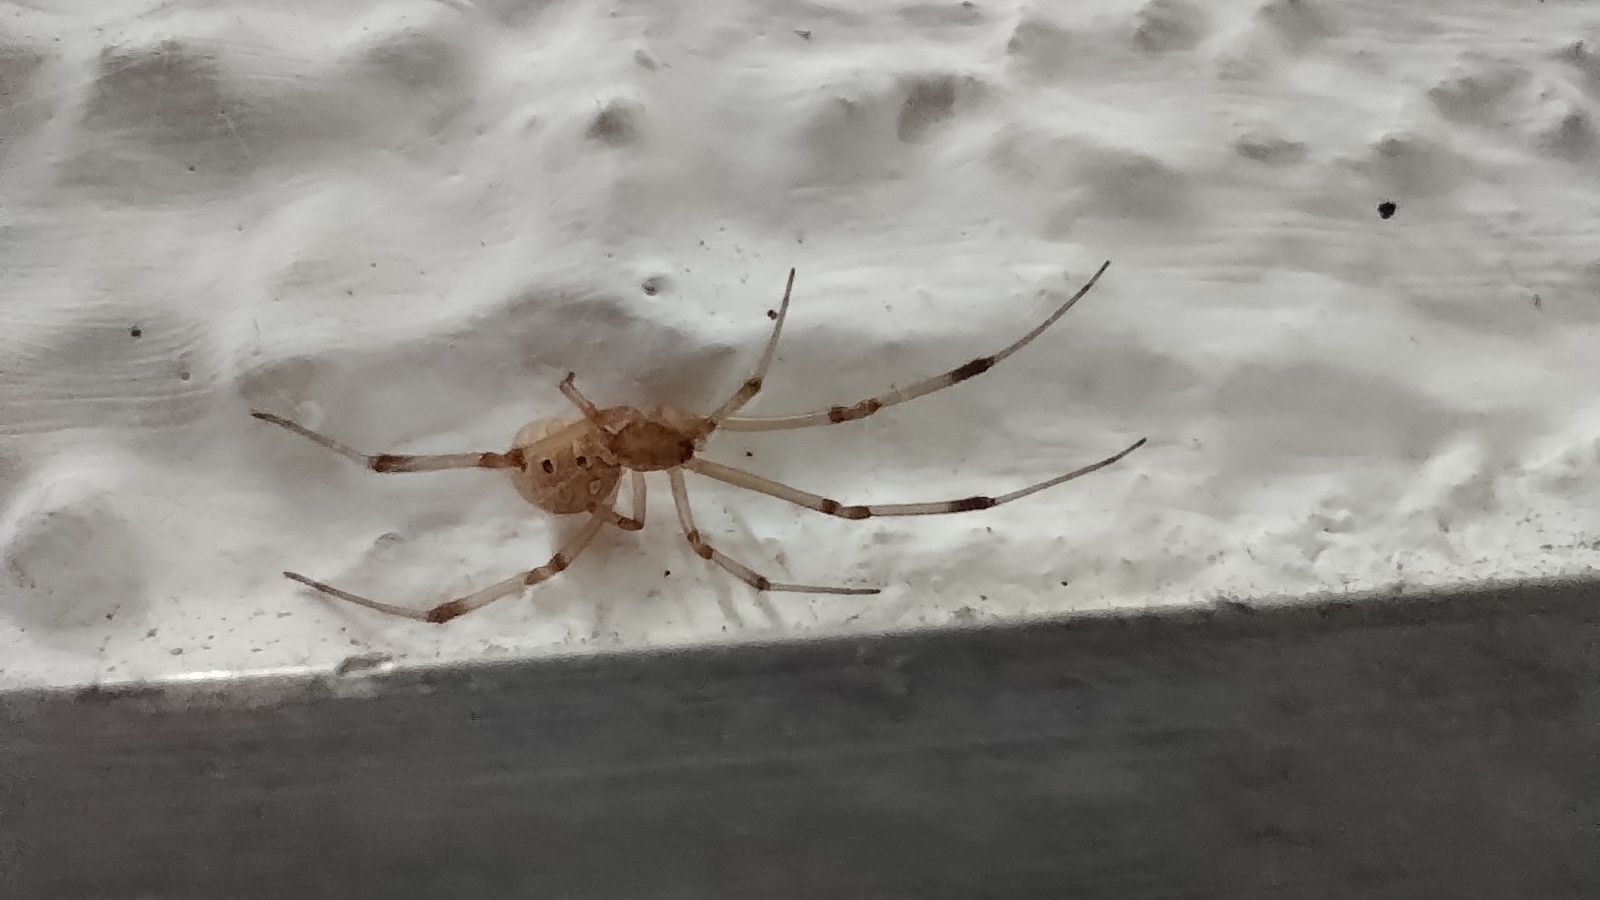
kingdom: Animalia
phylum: Arthropoda
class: Arachnida
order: Araneae
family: Theridiidae
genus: Latrodectus
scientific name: Latrodectus geometricus
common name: Brown widow spider
